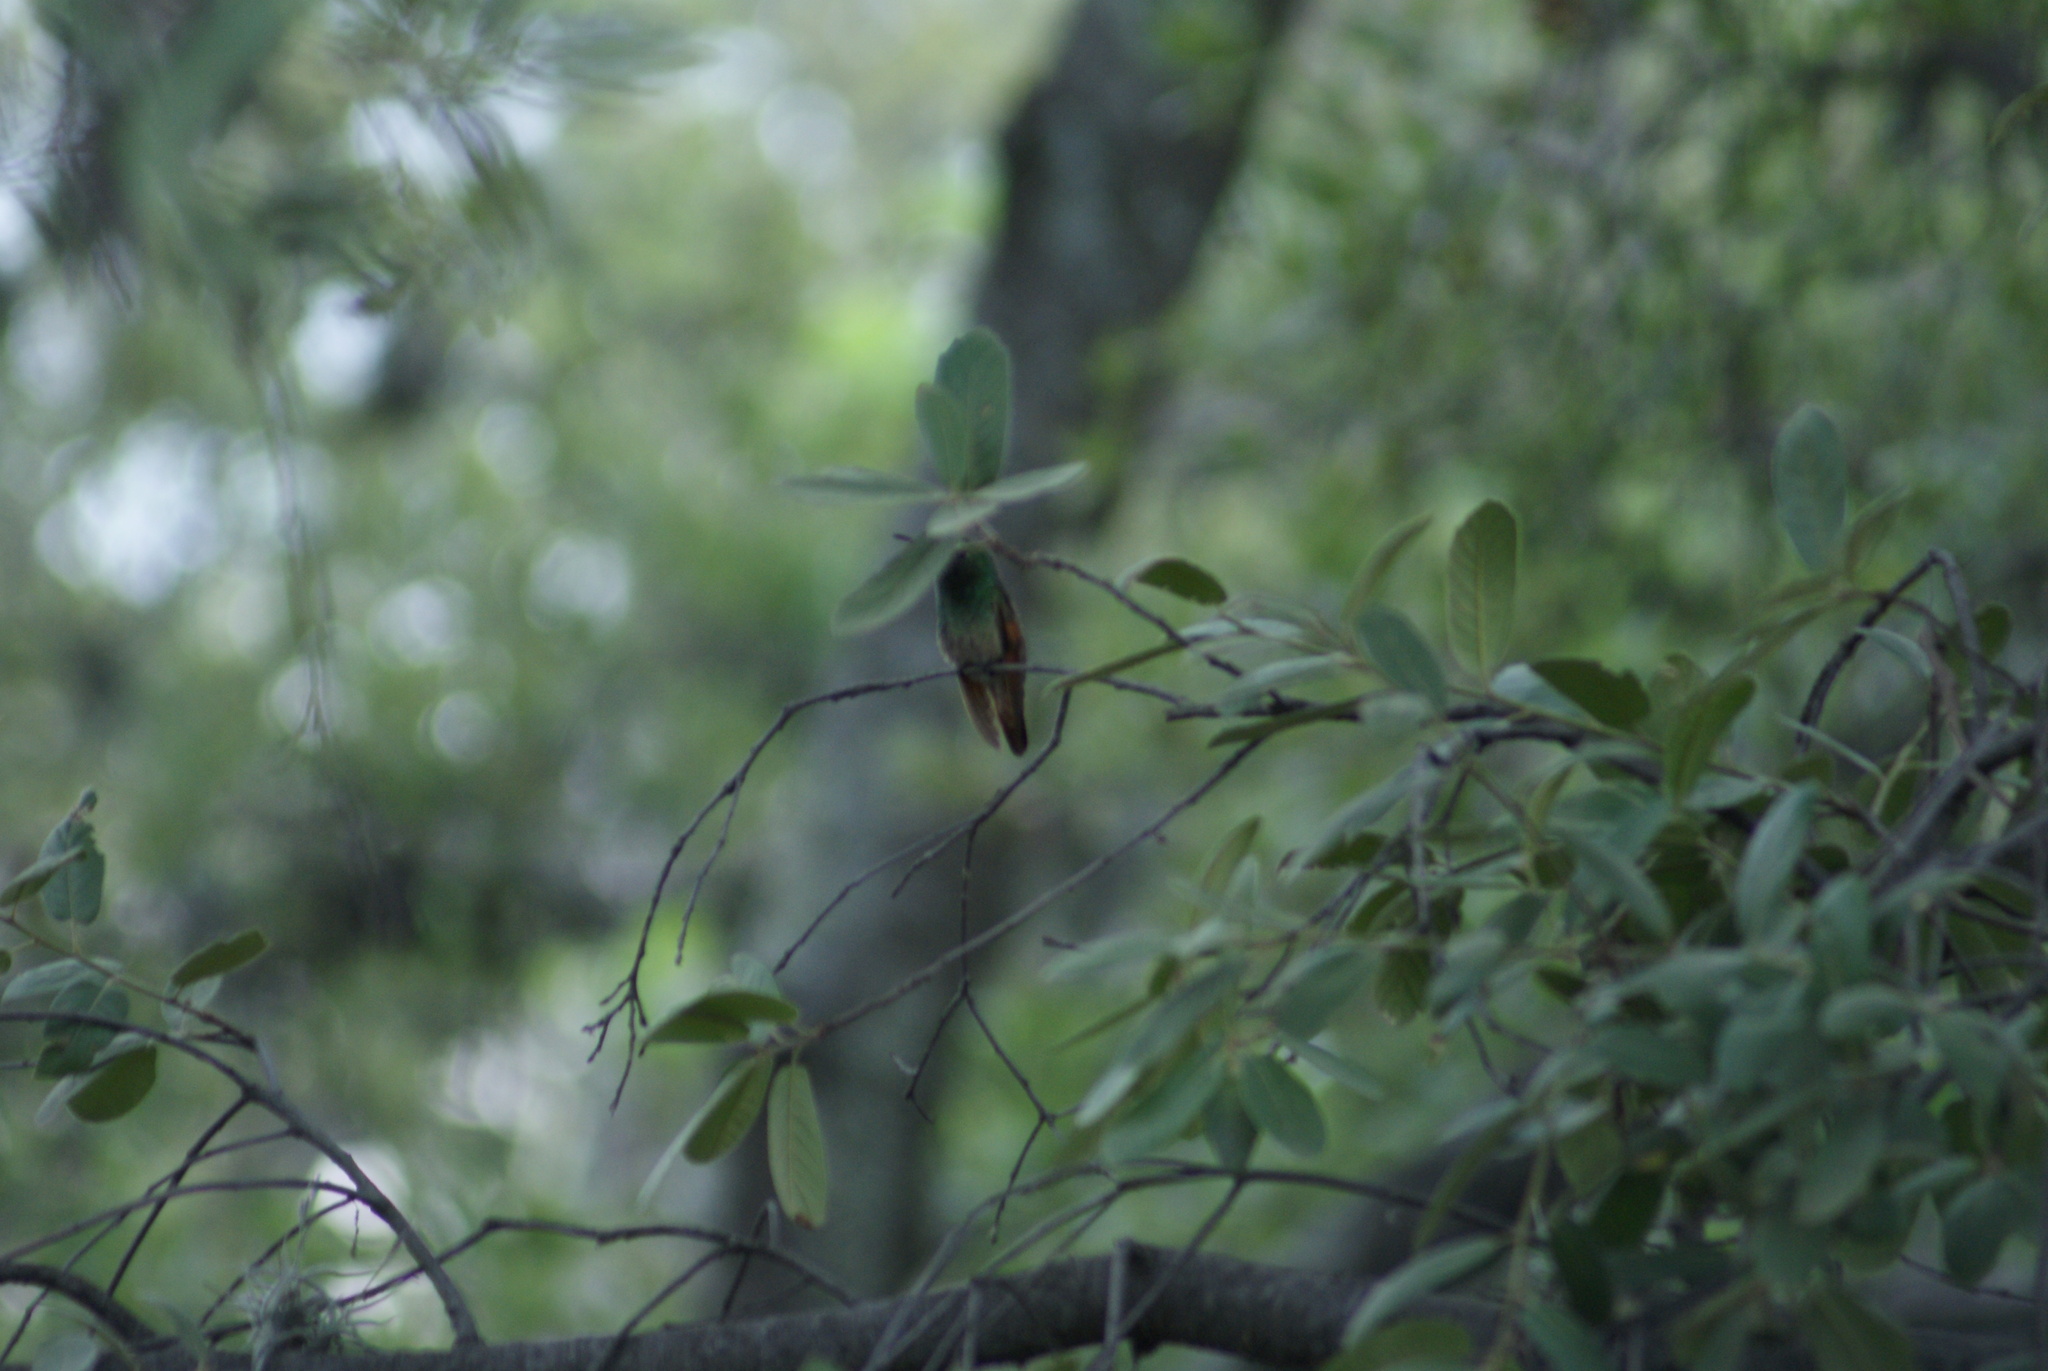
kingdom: Animalia
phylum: Chordata
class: Aves
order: Apodiformes
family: Trochilidae
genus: Saucerottia
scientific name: Saucerottia beryllina
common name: Berylline hummingbird
